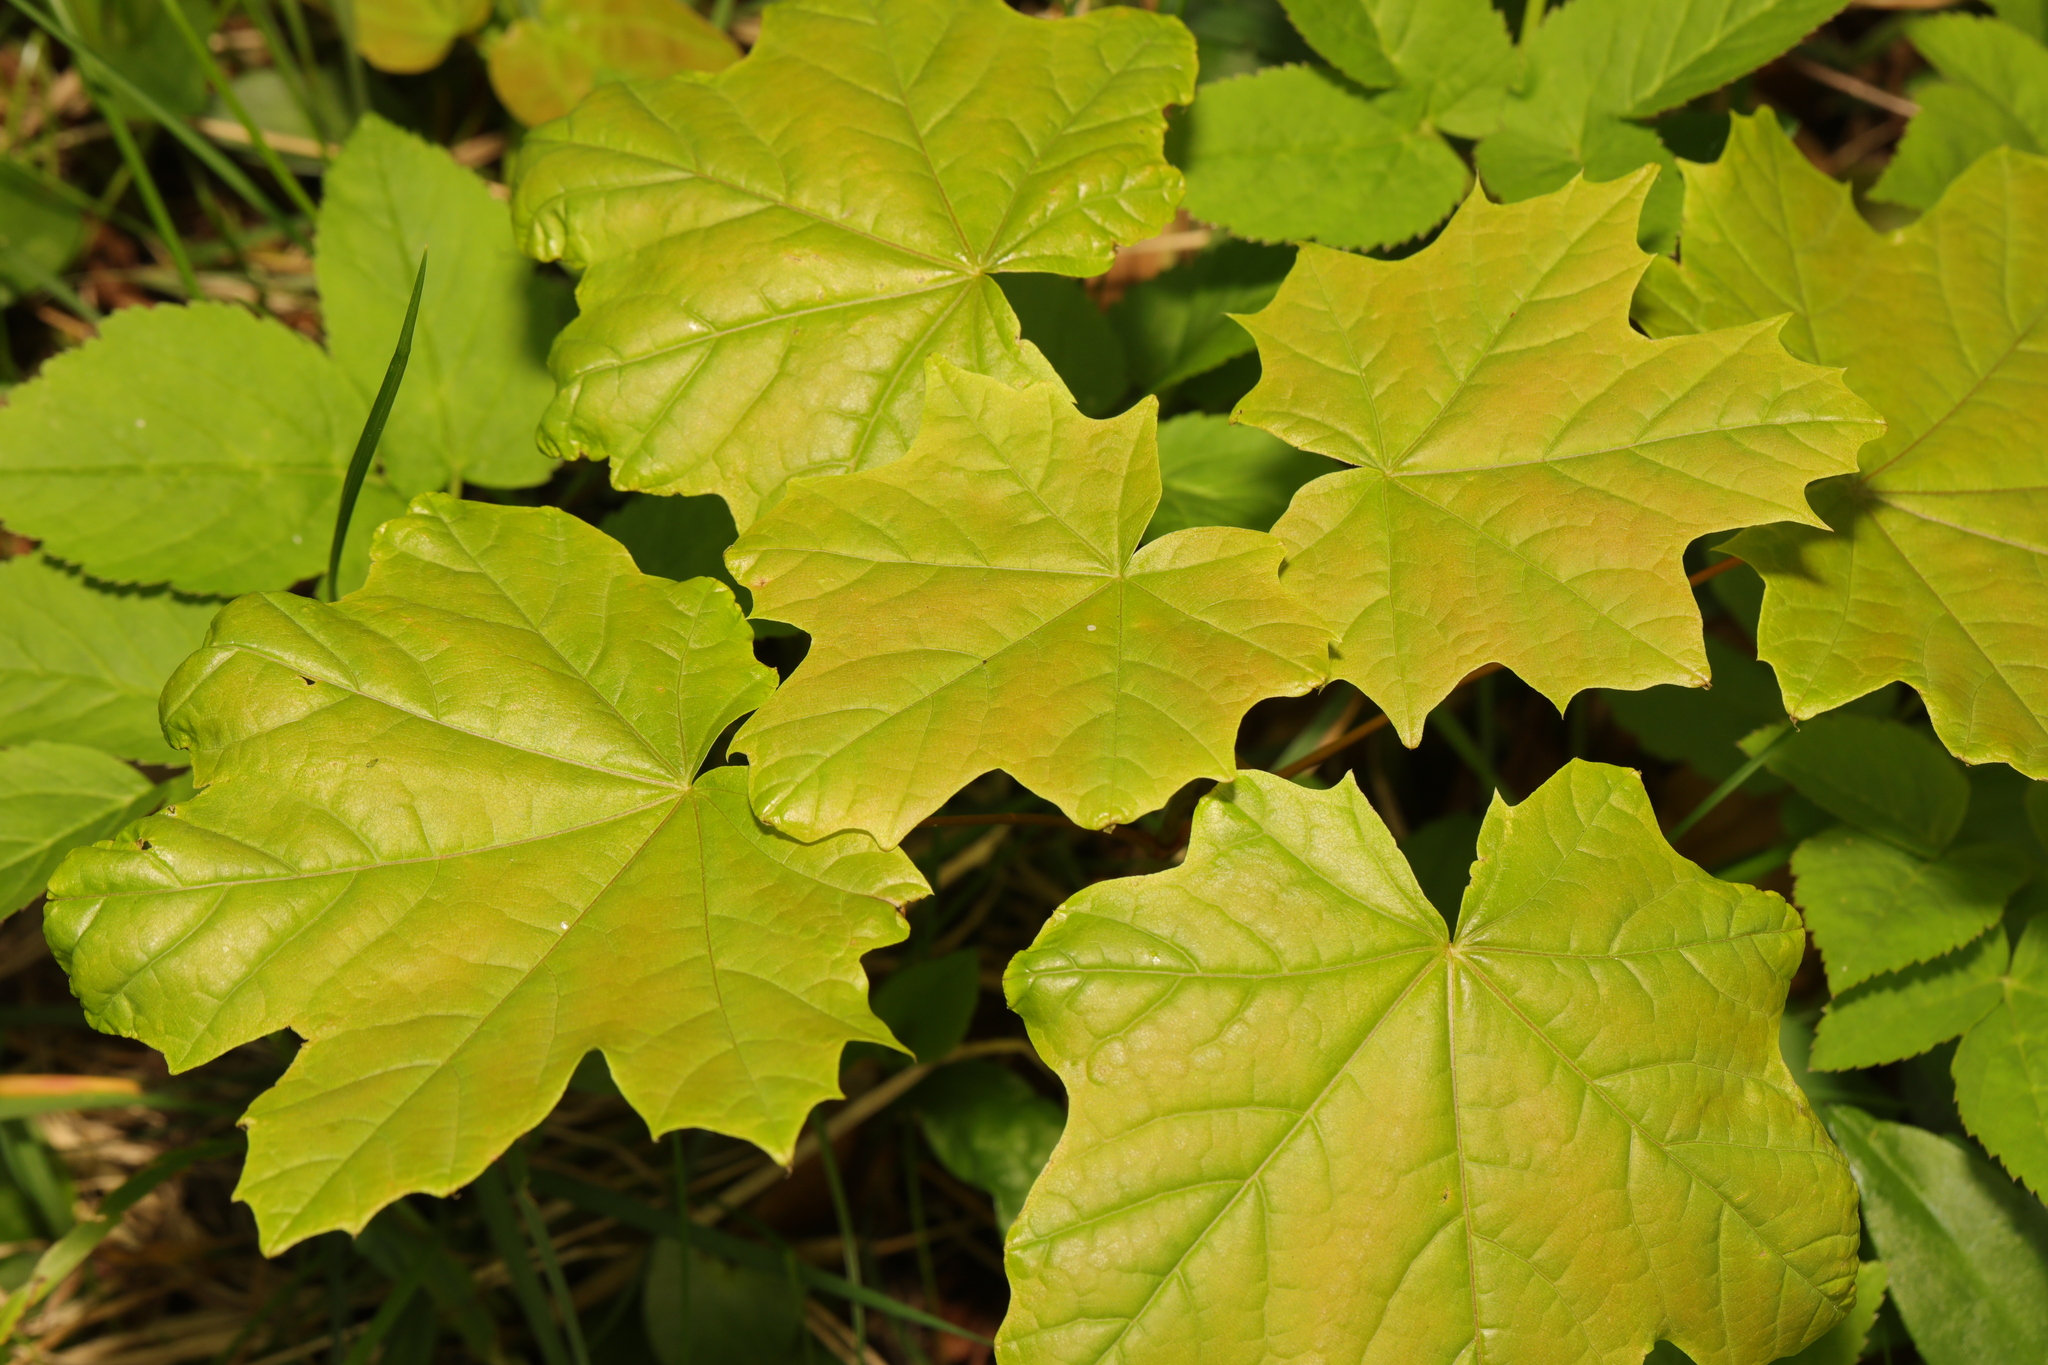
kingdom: Plantae
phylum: Tracheophyta
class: Magnoliopsida
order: Sapindales
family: Sapindaceae
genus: Acer
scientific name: Acer platanoides
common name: Norway maple
